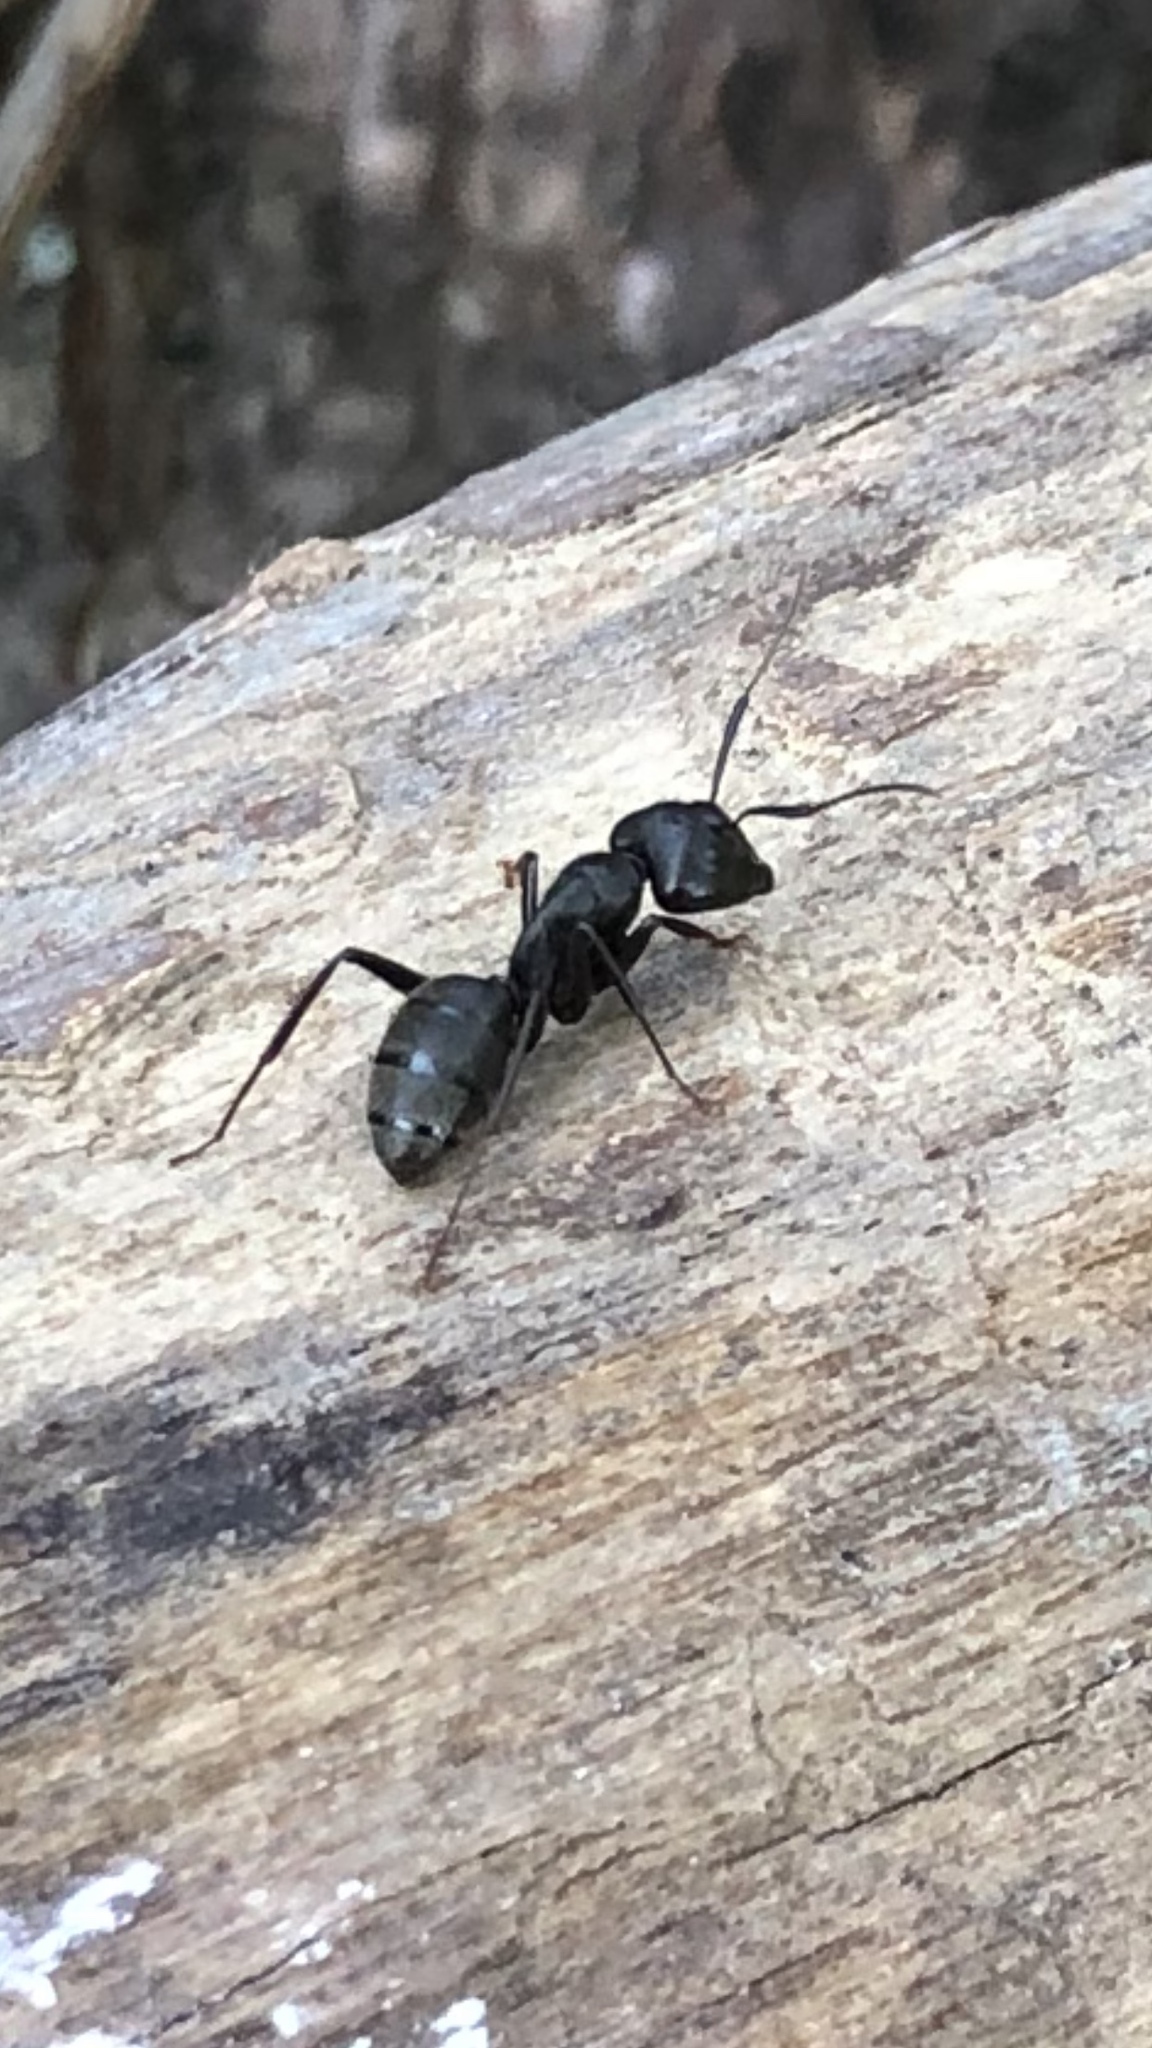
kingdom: Animalia
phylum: Arthropoda
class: Insecta
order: Hymenoptera
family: Formicidae
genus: Camponotus
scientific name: Camponotus pennsylvanicus
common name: Black carpenter ant
